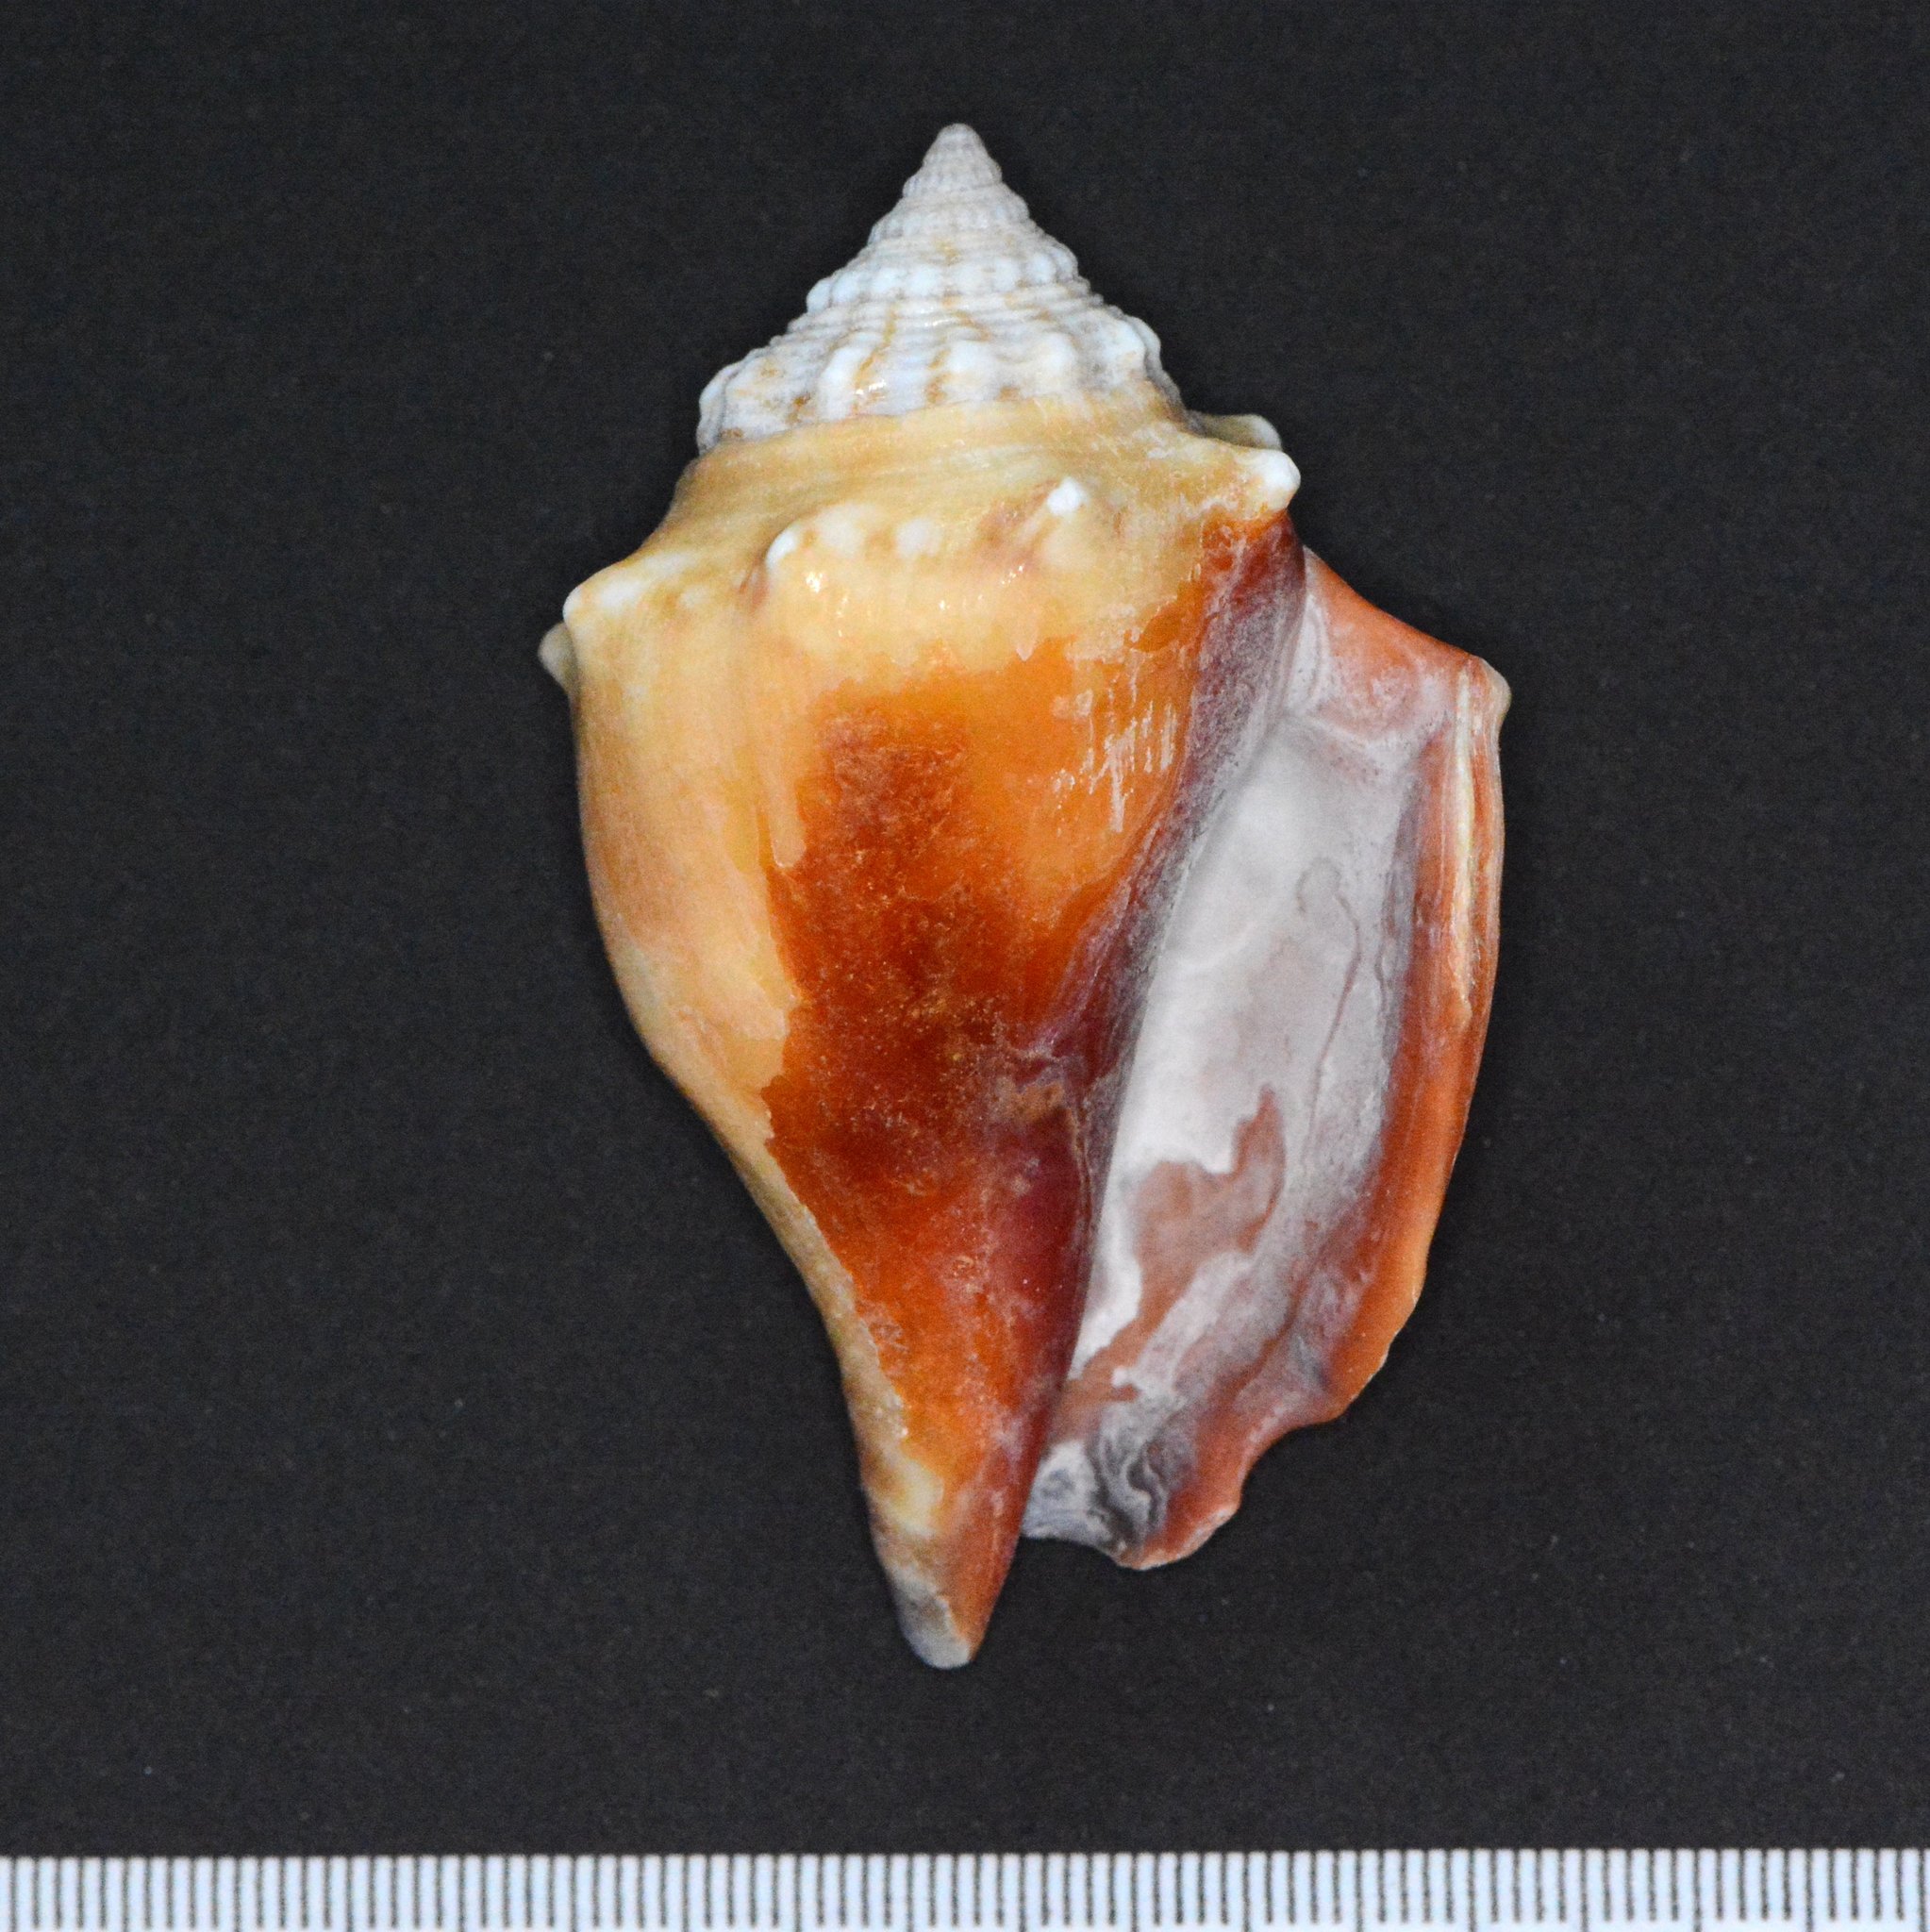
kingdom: Animalia
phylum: Mollusca
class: Gastropoda
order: Littorinimorpha
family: Strombidae
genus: Strombus
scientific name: Strombus alatus
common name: Florida fighting conch
